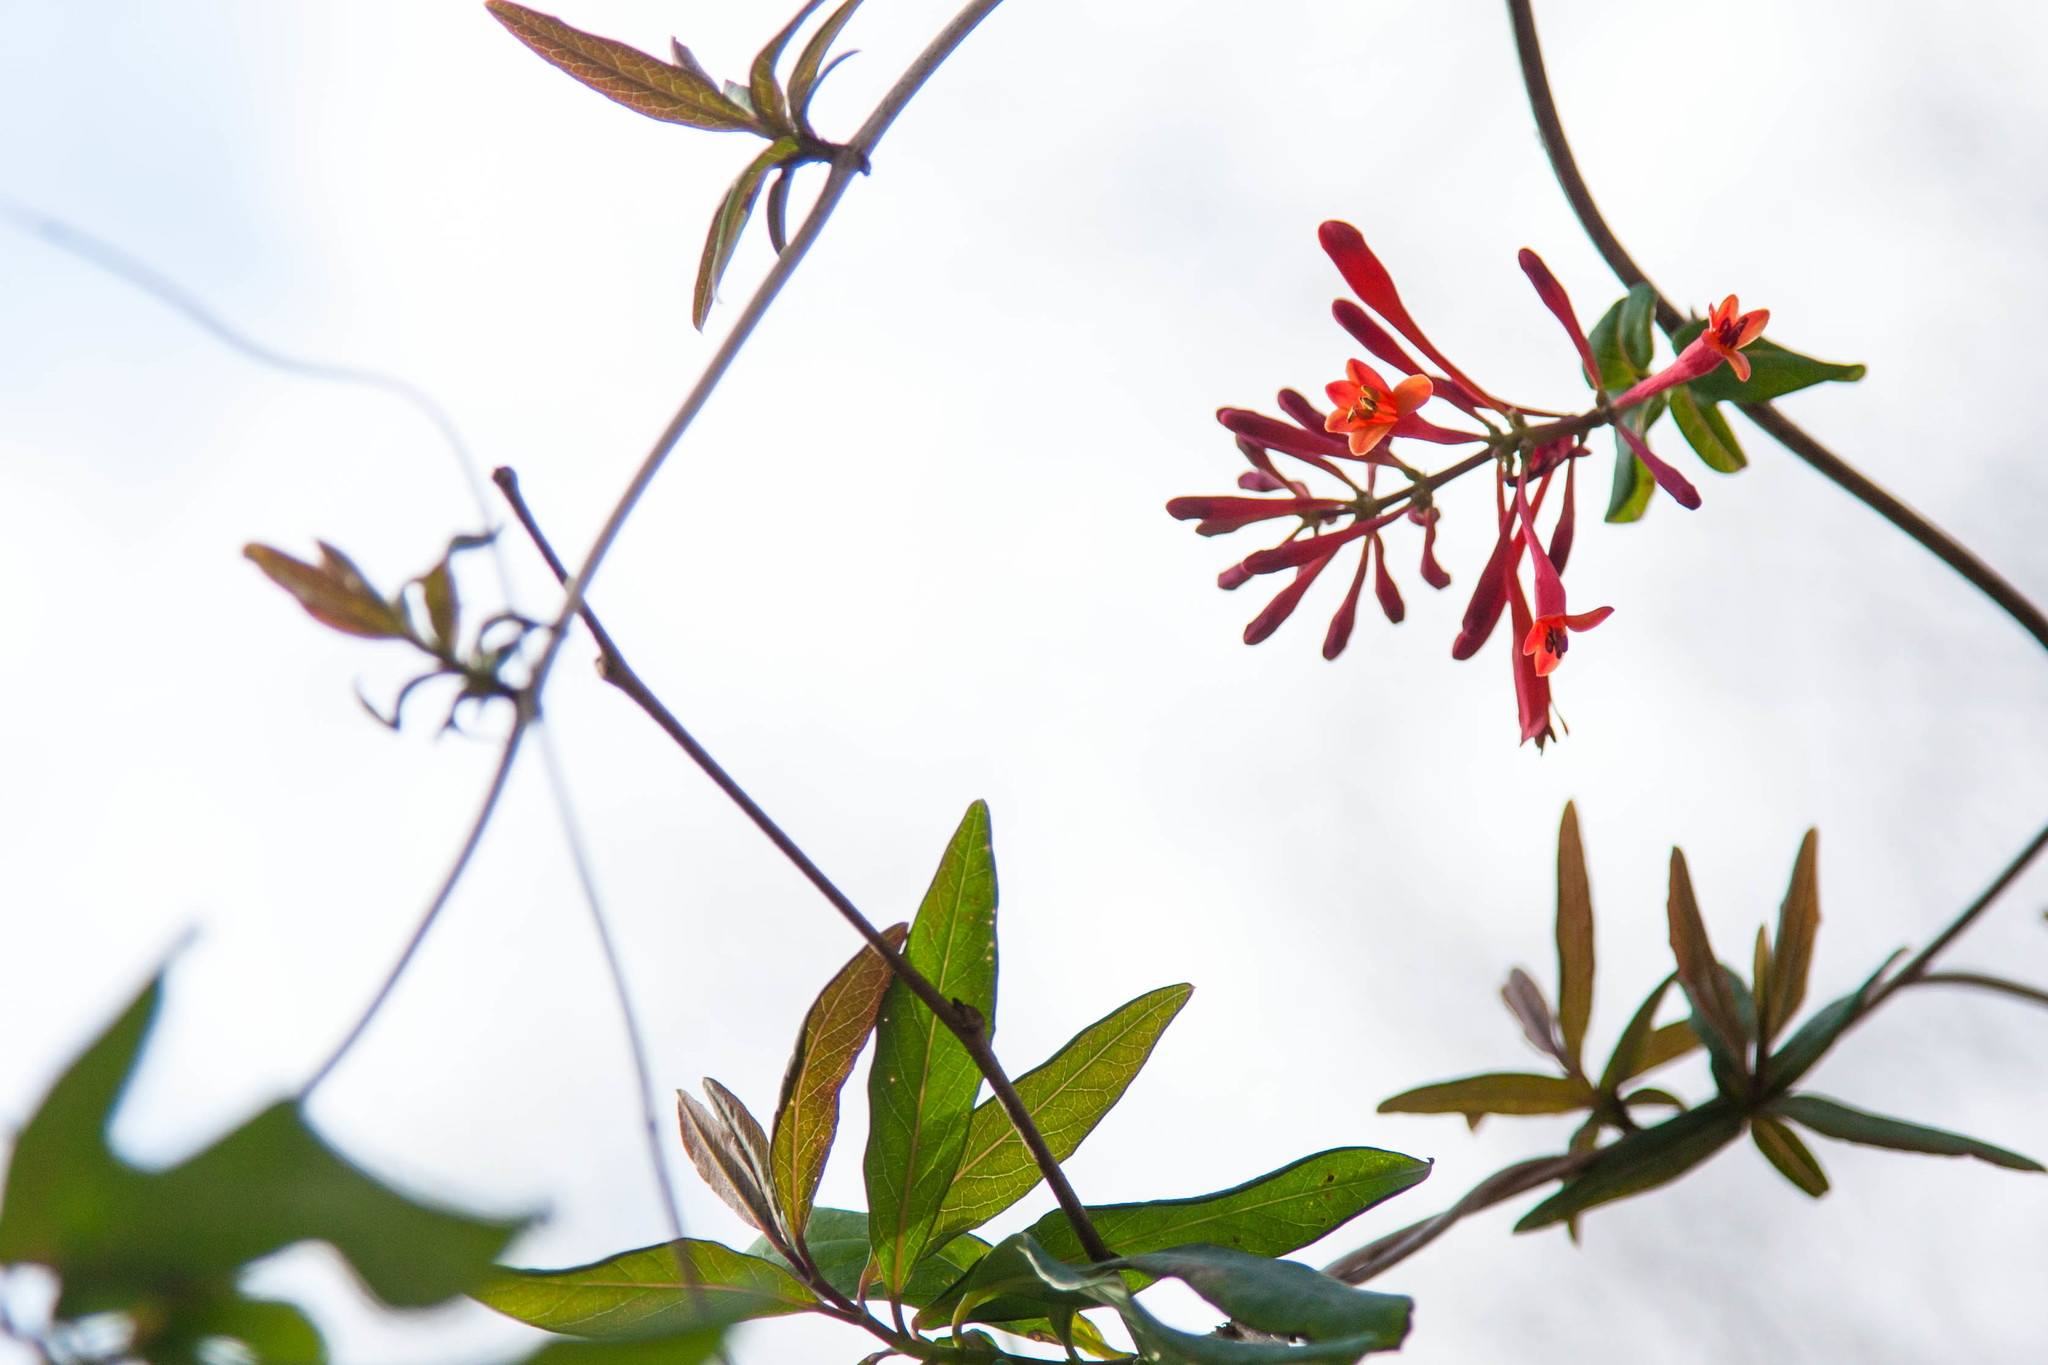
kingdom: Plantae
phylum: Tracheophyta
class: Magnoliopsida
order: Dipsacales
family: Caprifoliaceae
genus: Lonicera
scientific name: Lonicera sempervirens
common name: Coral honeysuckle
